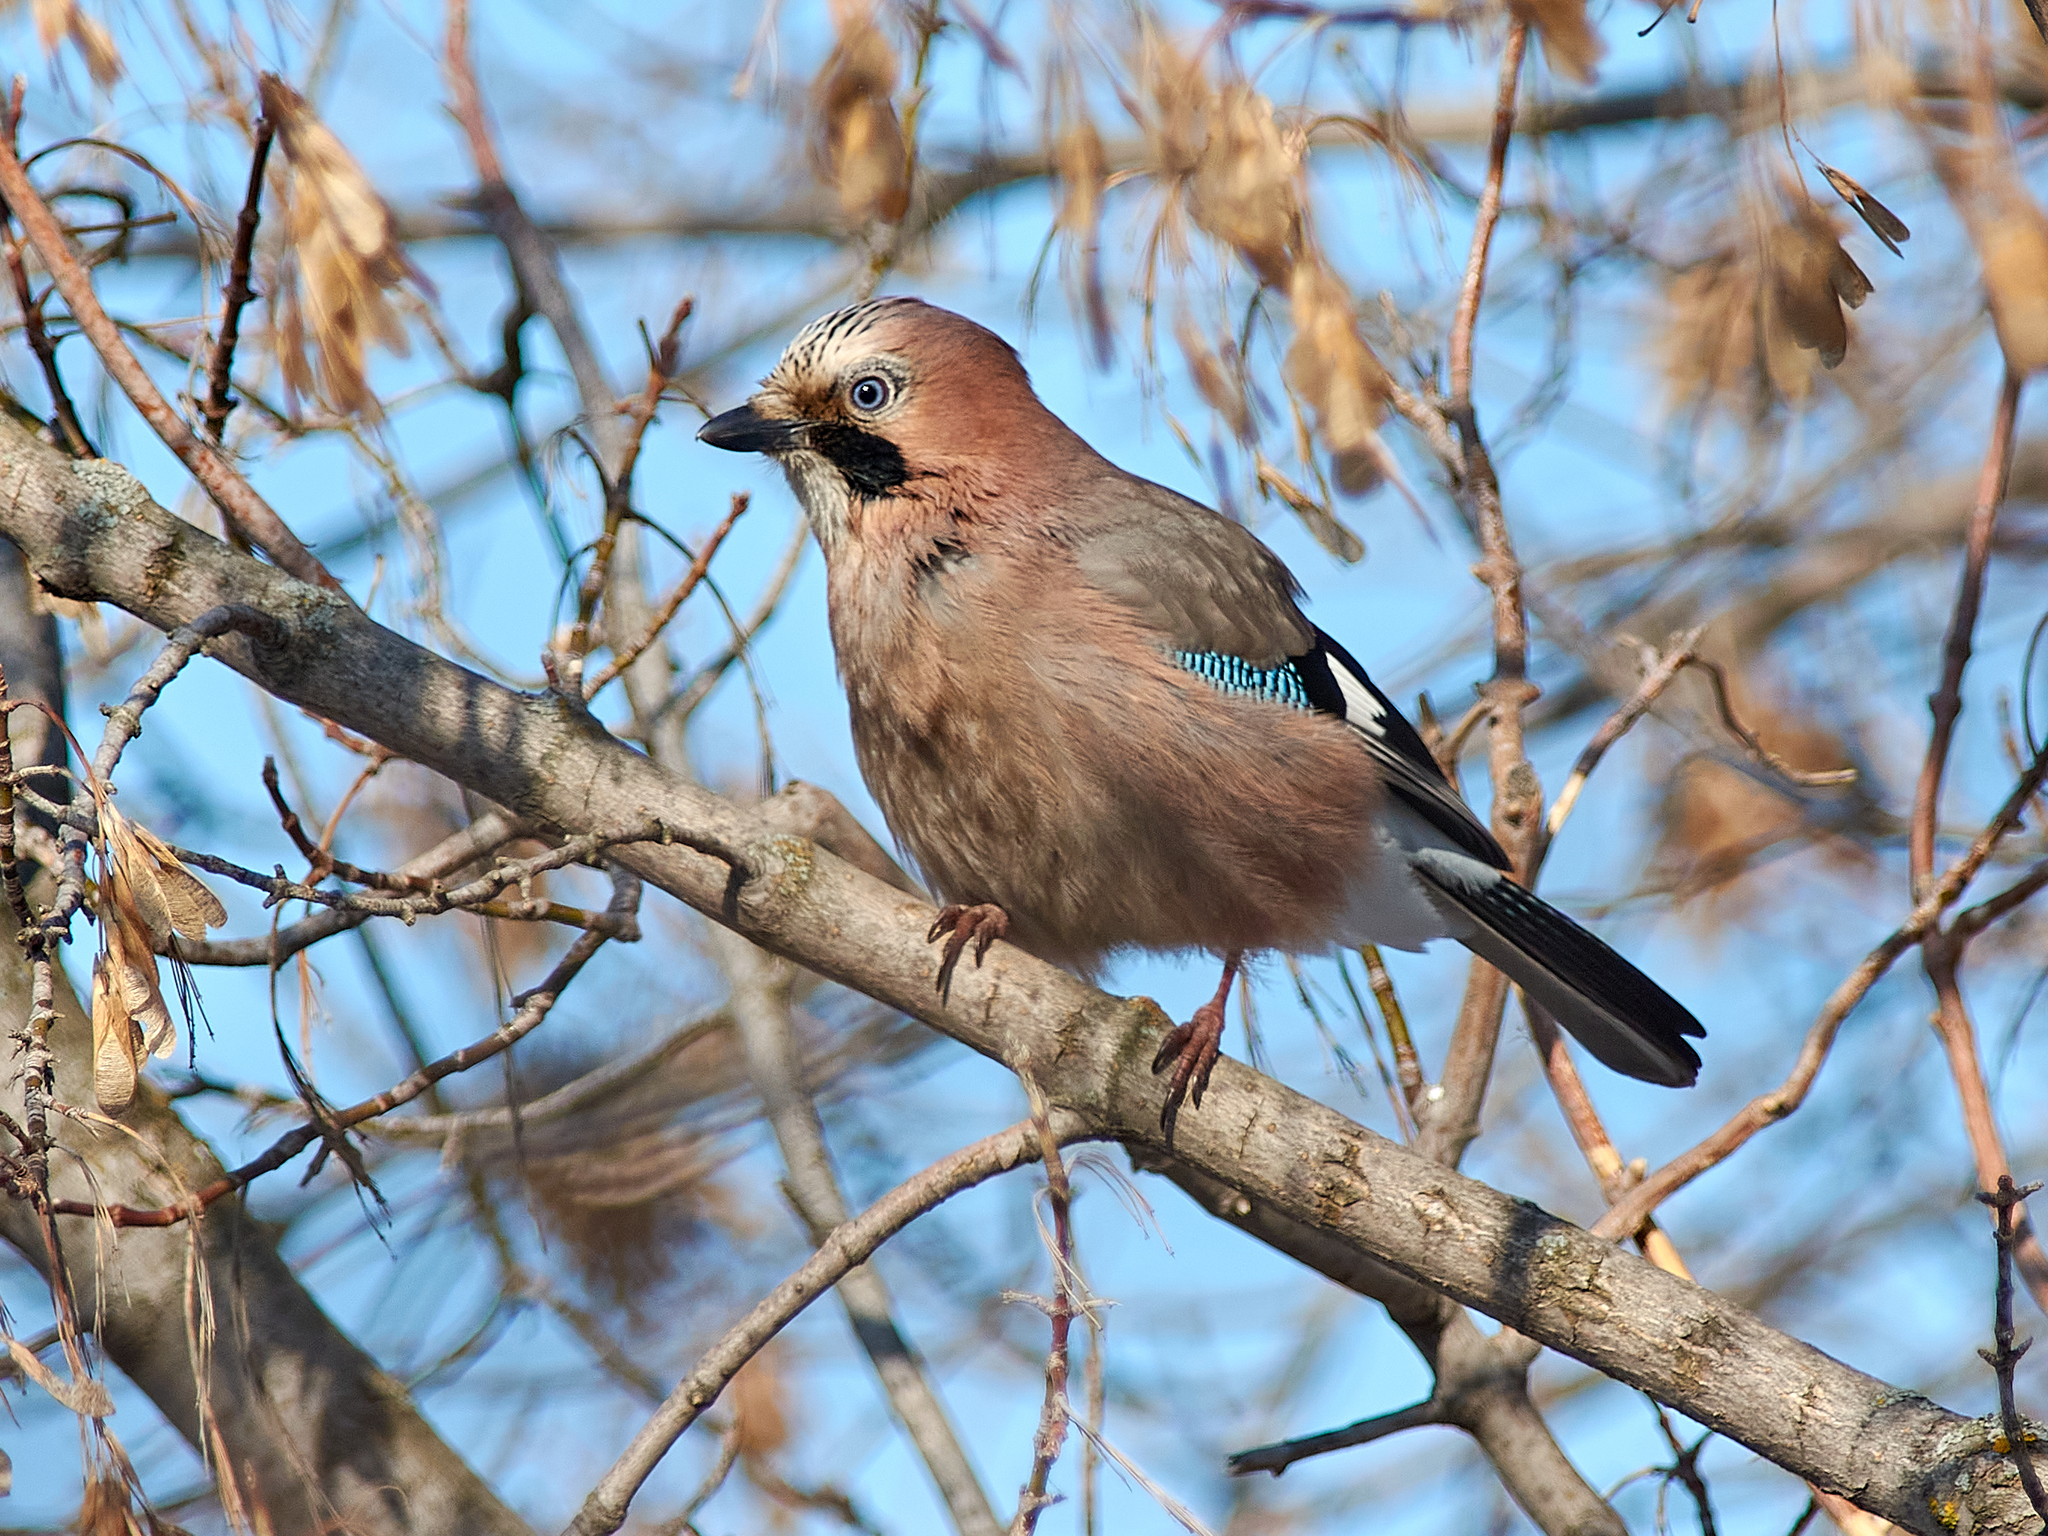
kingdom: Animalia
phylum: Chordata
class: Aves
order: Passeriformes
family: Corvidae
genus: Garrulus
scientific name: Garrulus glandarius
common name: Eurasian jay
